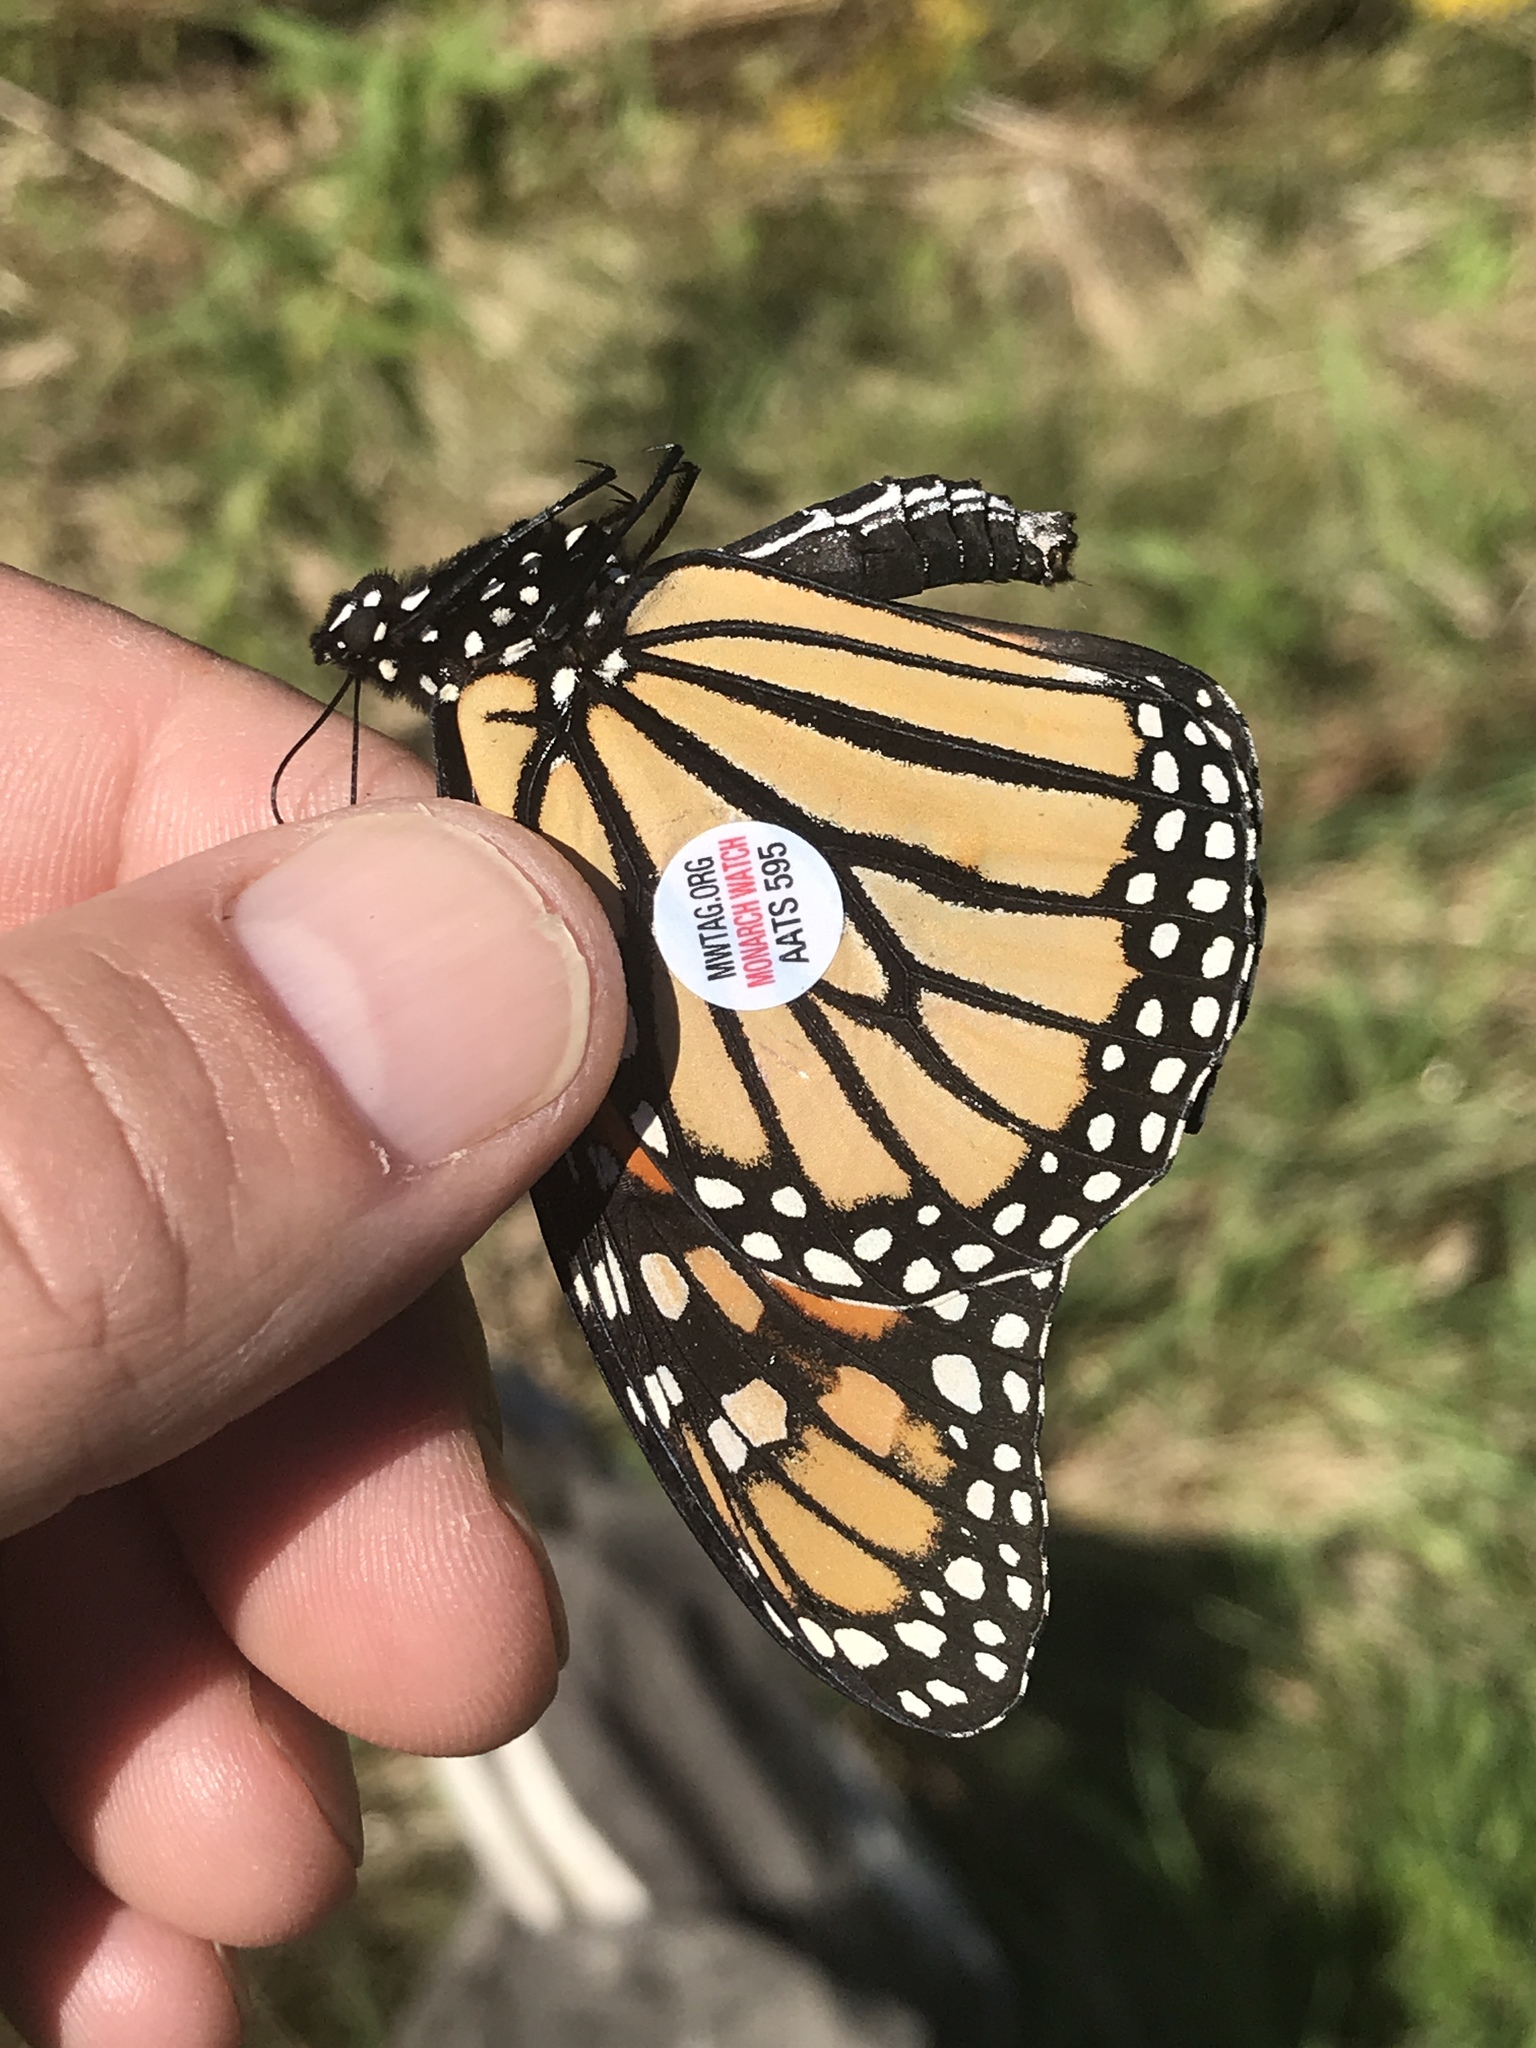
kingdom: Animalia
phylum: Arthropoda
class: Insecta
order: Lepidoptera
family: Nymphalidae
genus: Danaus
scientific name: Danaus plexippus
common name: Monarch
